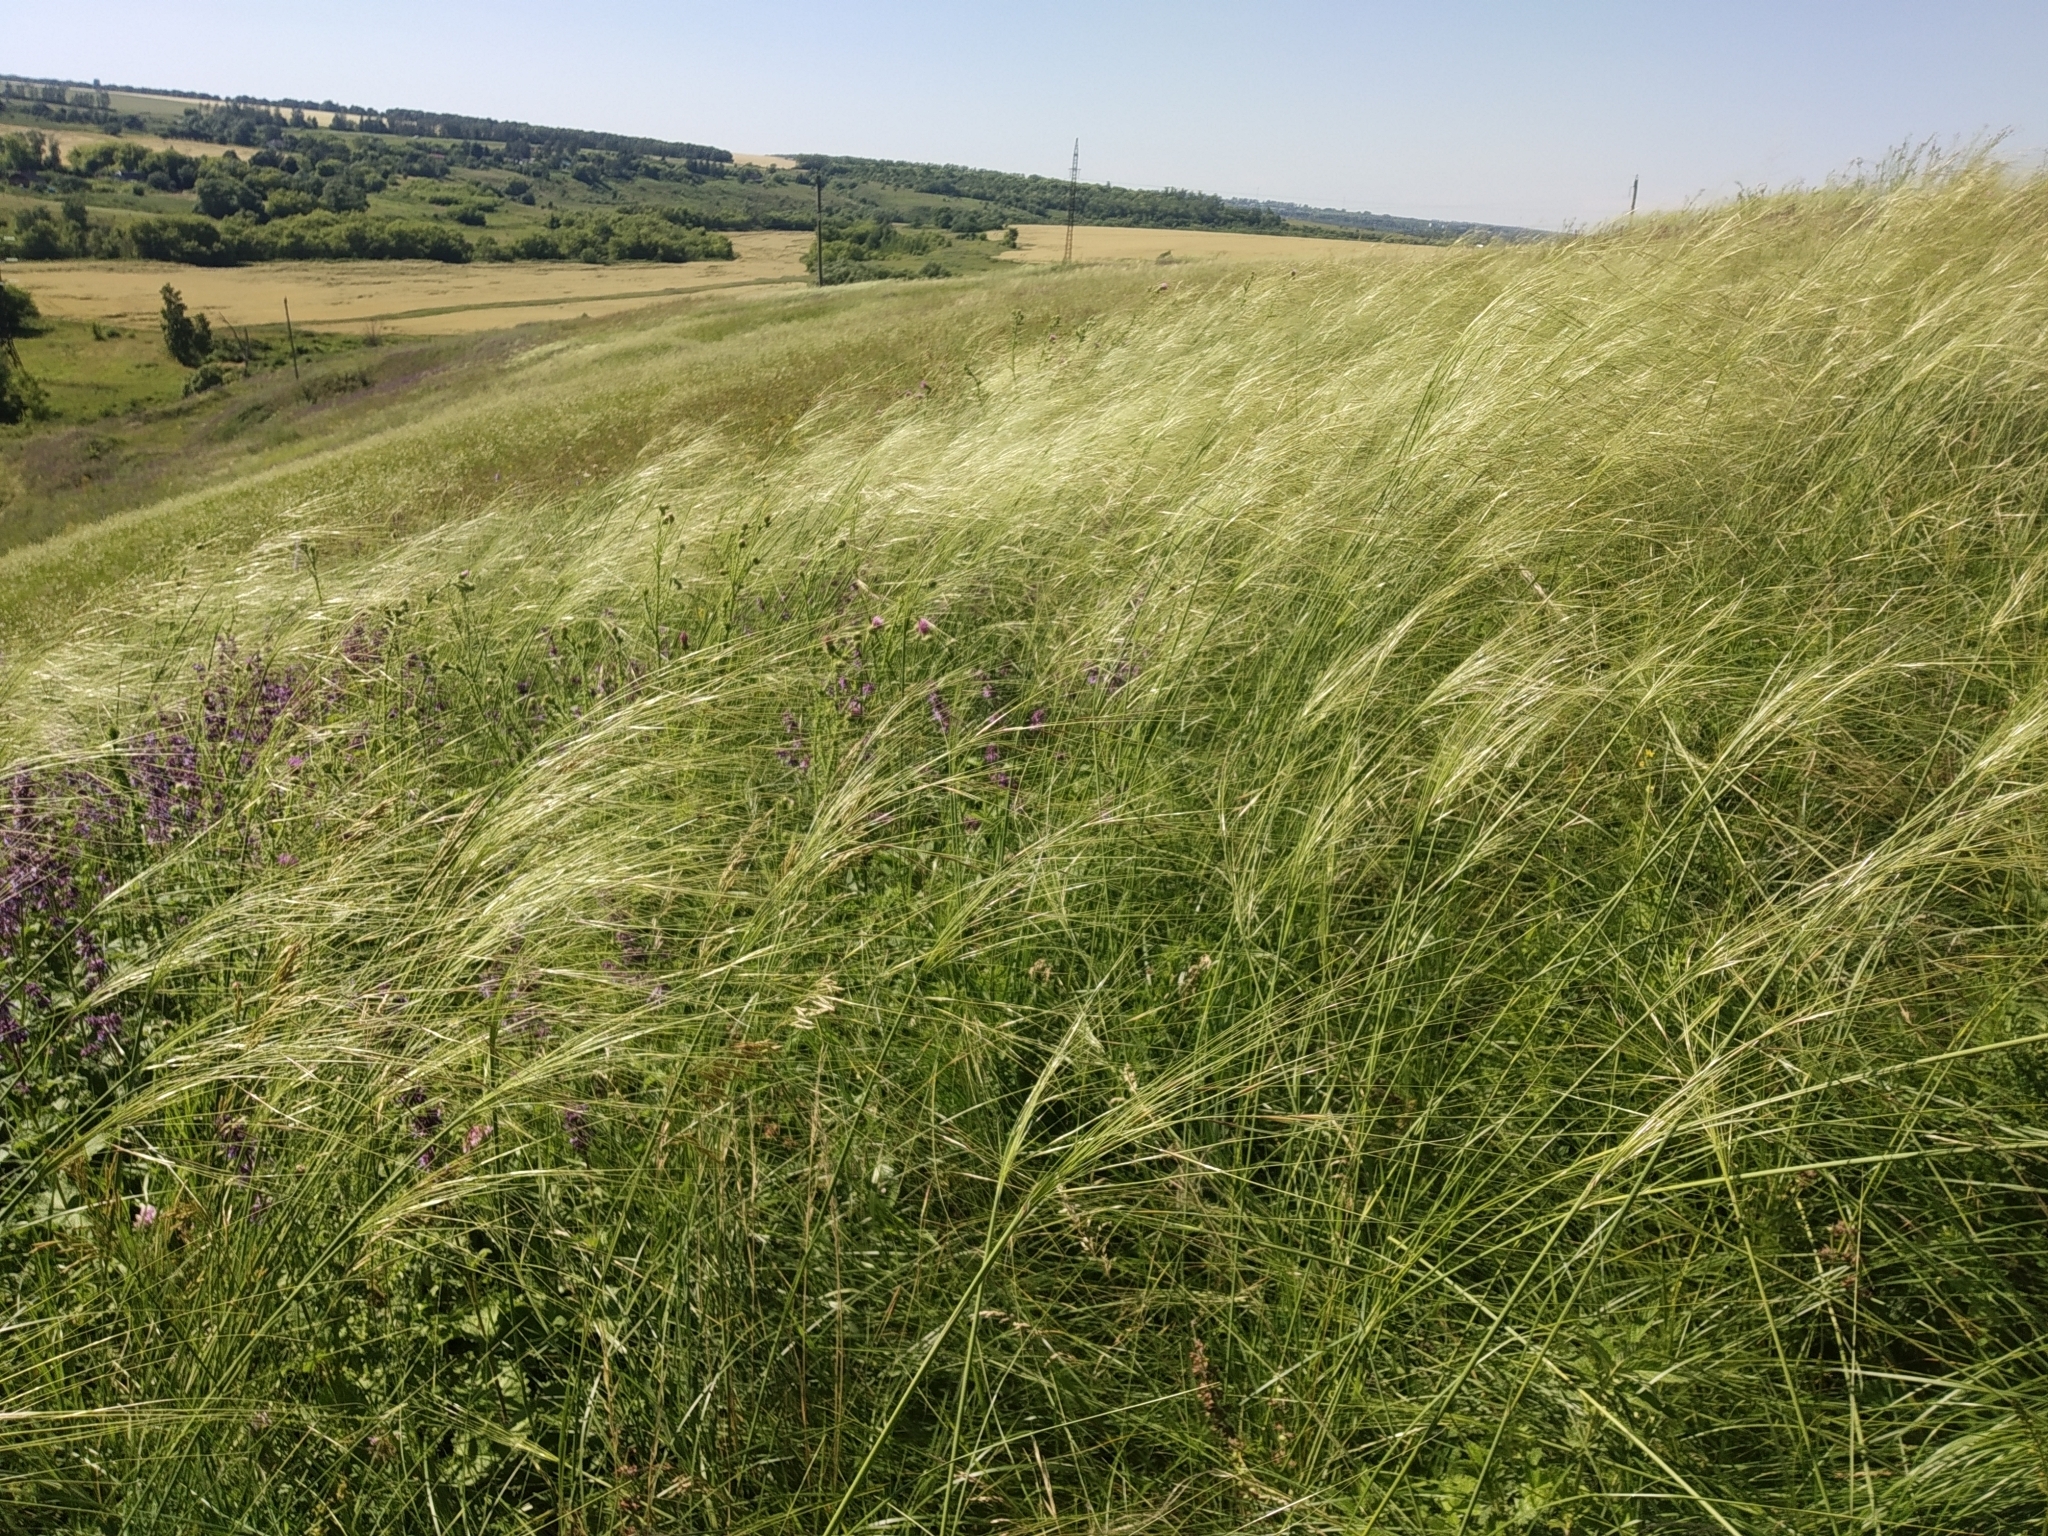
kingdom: Plantae
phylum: Tracheophyta
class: Liliopsida
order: Poales
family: Poaceae
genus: Stipa
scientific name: Stipa capillata
